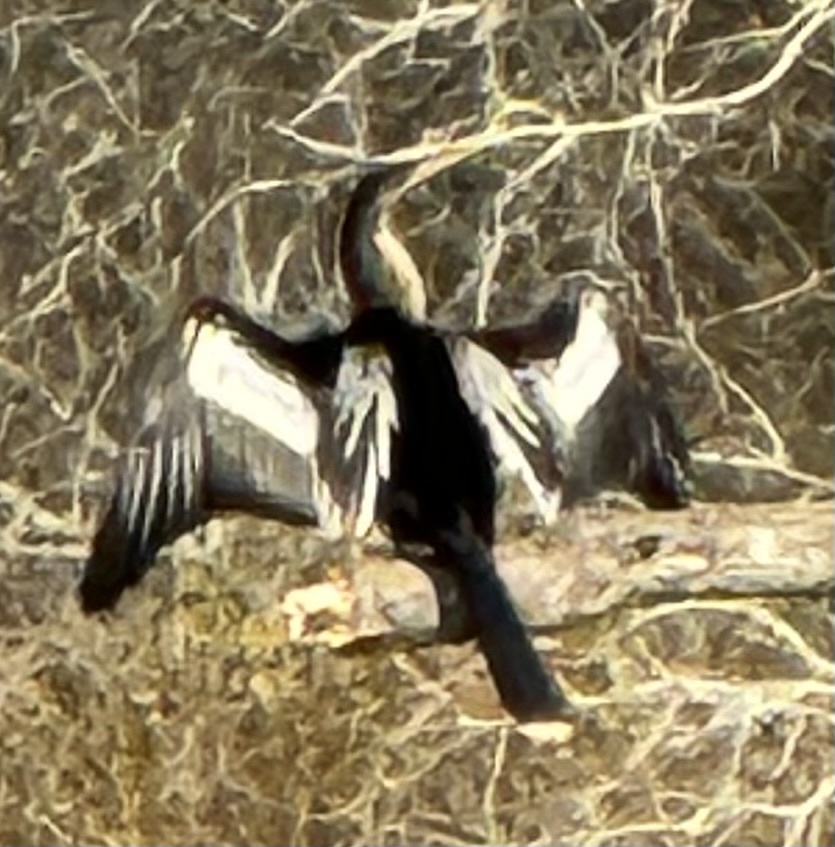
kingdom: Animalia
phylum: Chordata
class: Aves
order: Suliformes
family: Anhingidae
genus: Anhinga
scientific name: Anhinga anhinga
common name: Anhinga
